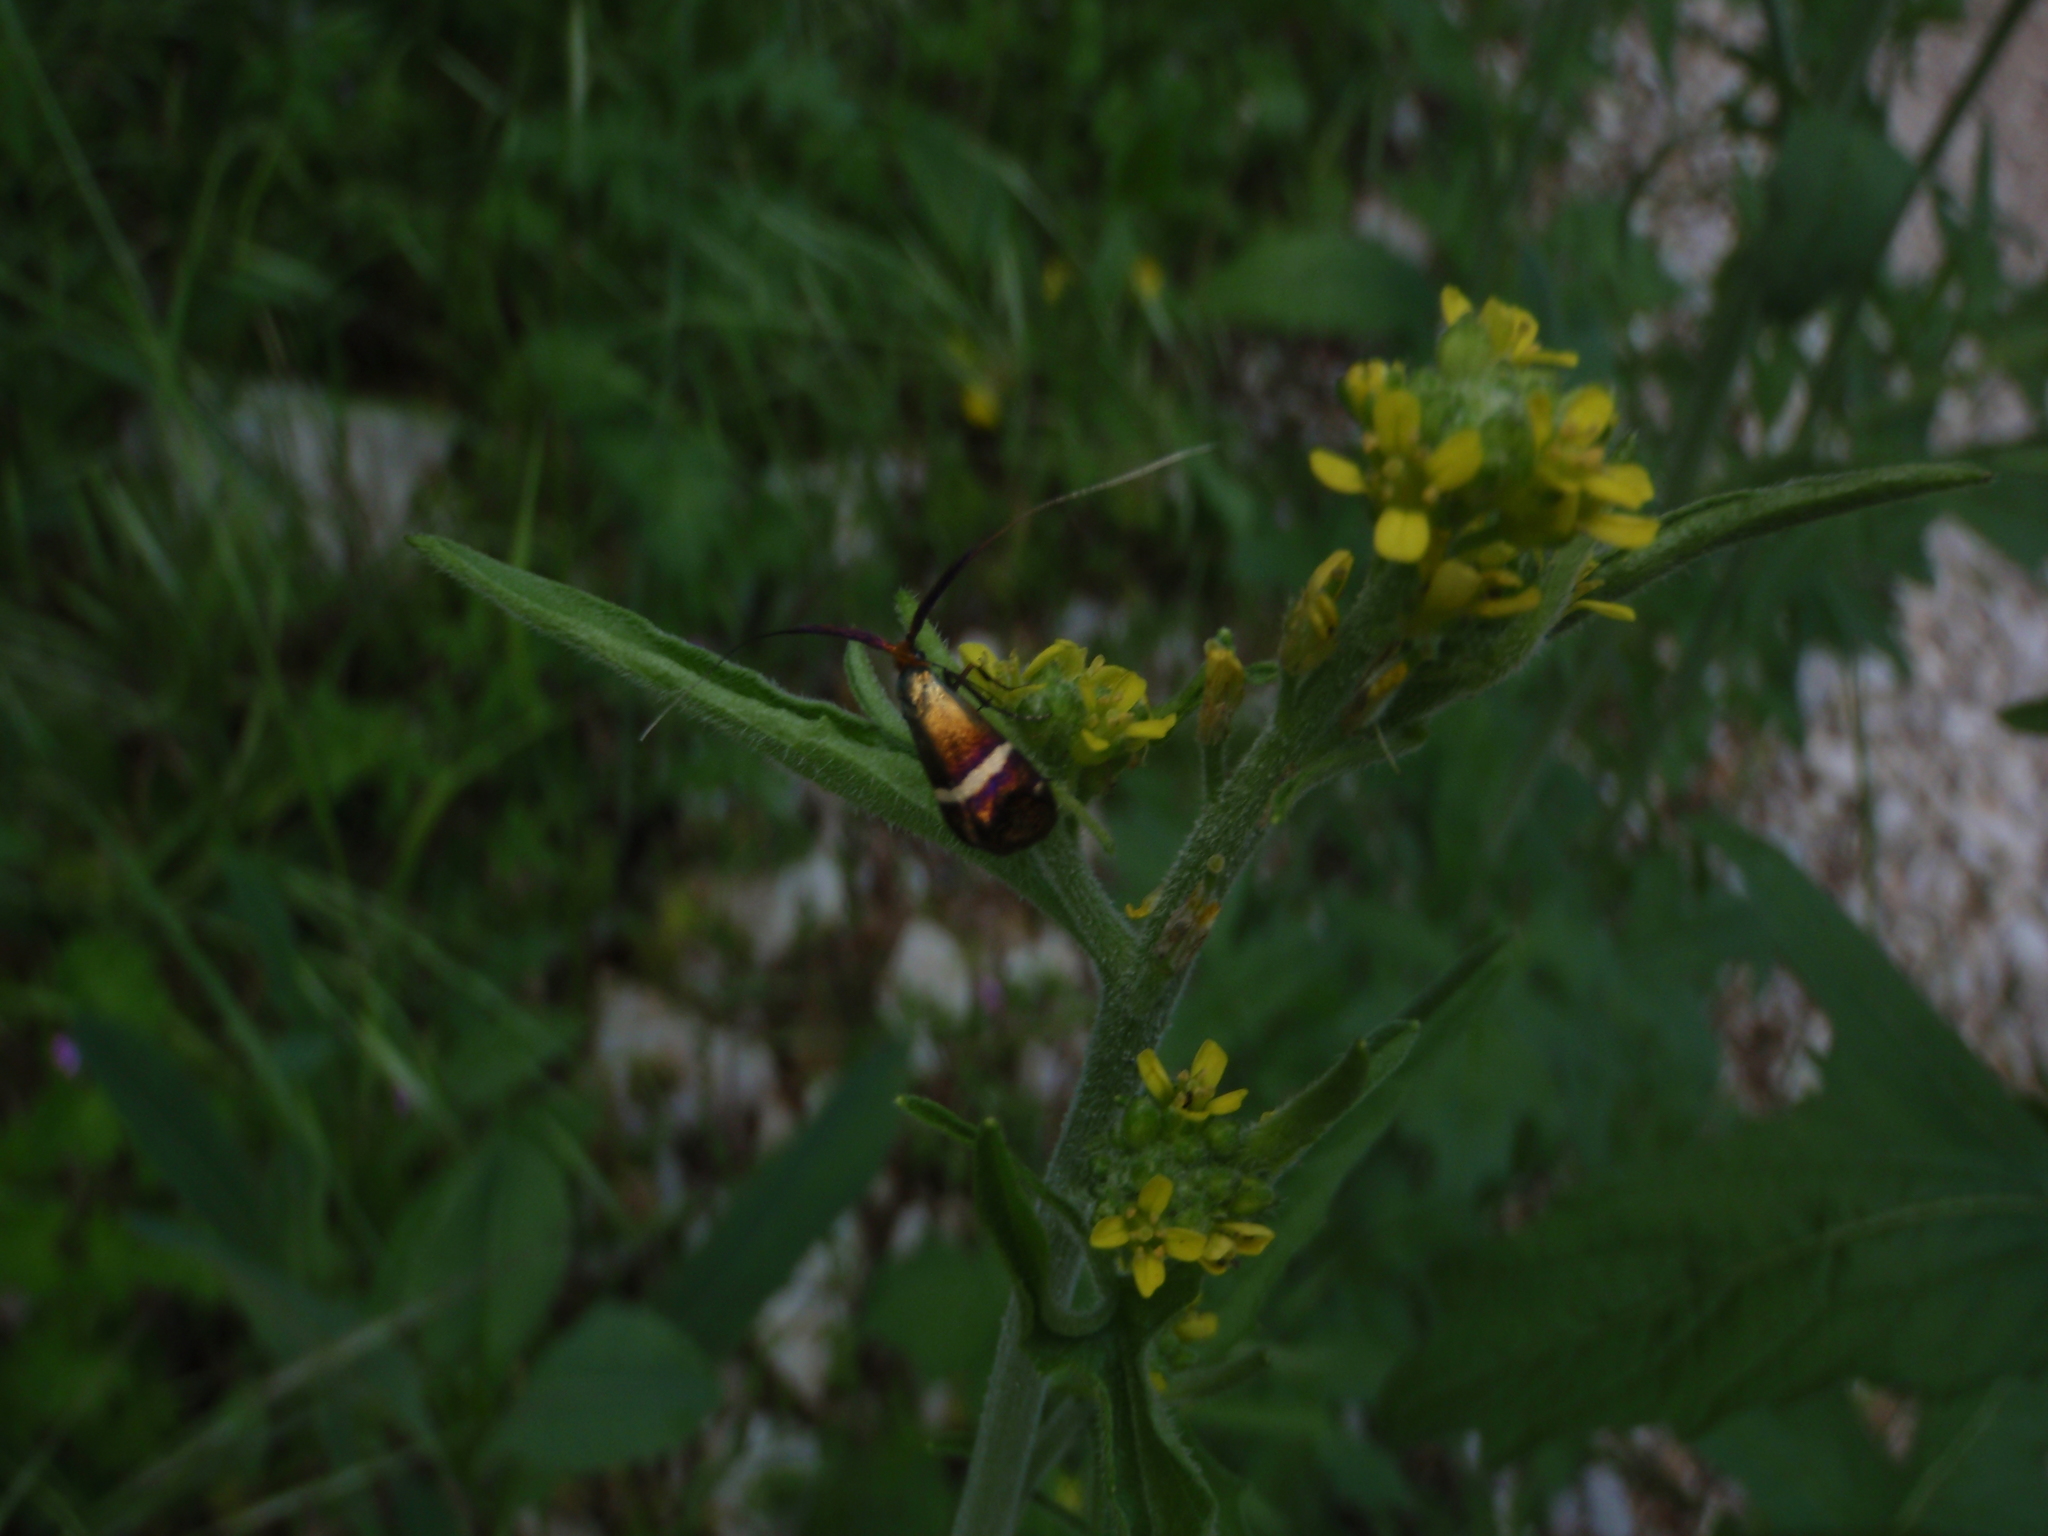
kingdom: Animalia
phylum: Arthropoda
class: Insecta
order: Lepidoptera
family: Adelidae
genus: Adela
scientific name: Adela australis
